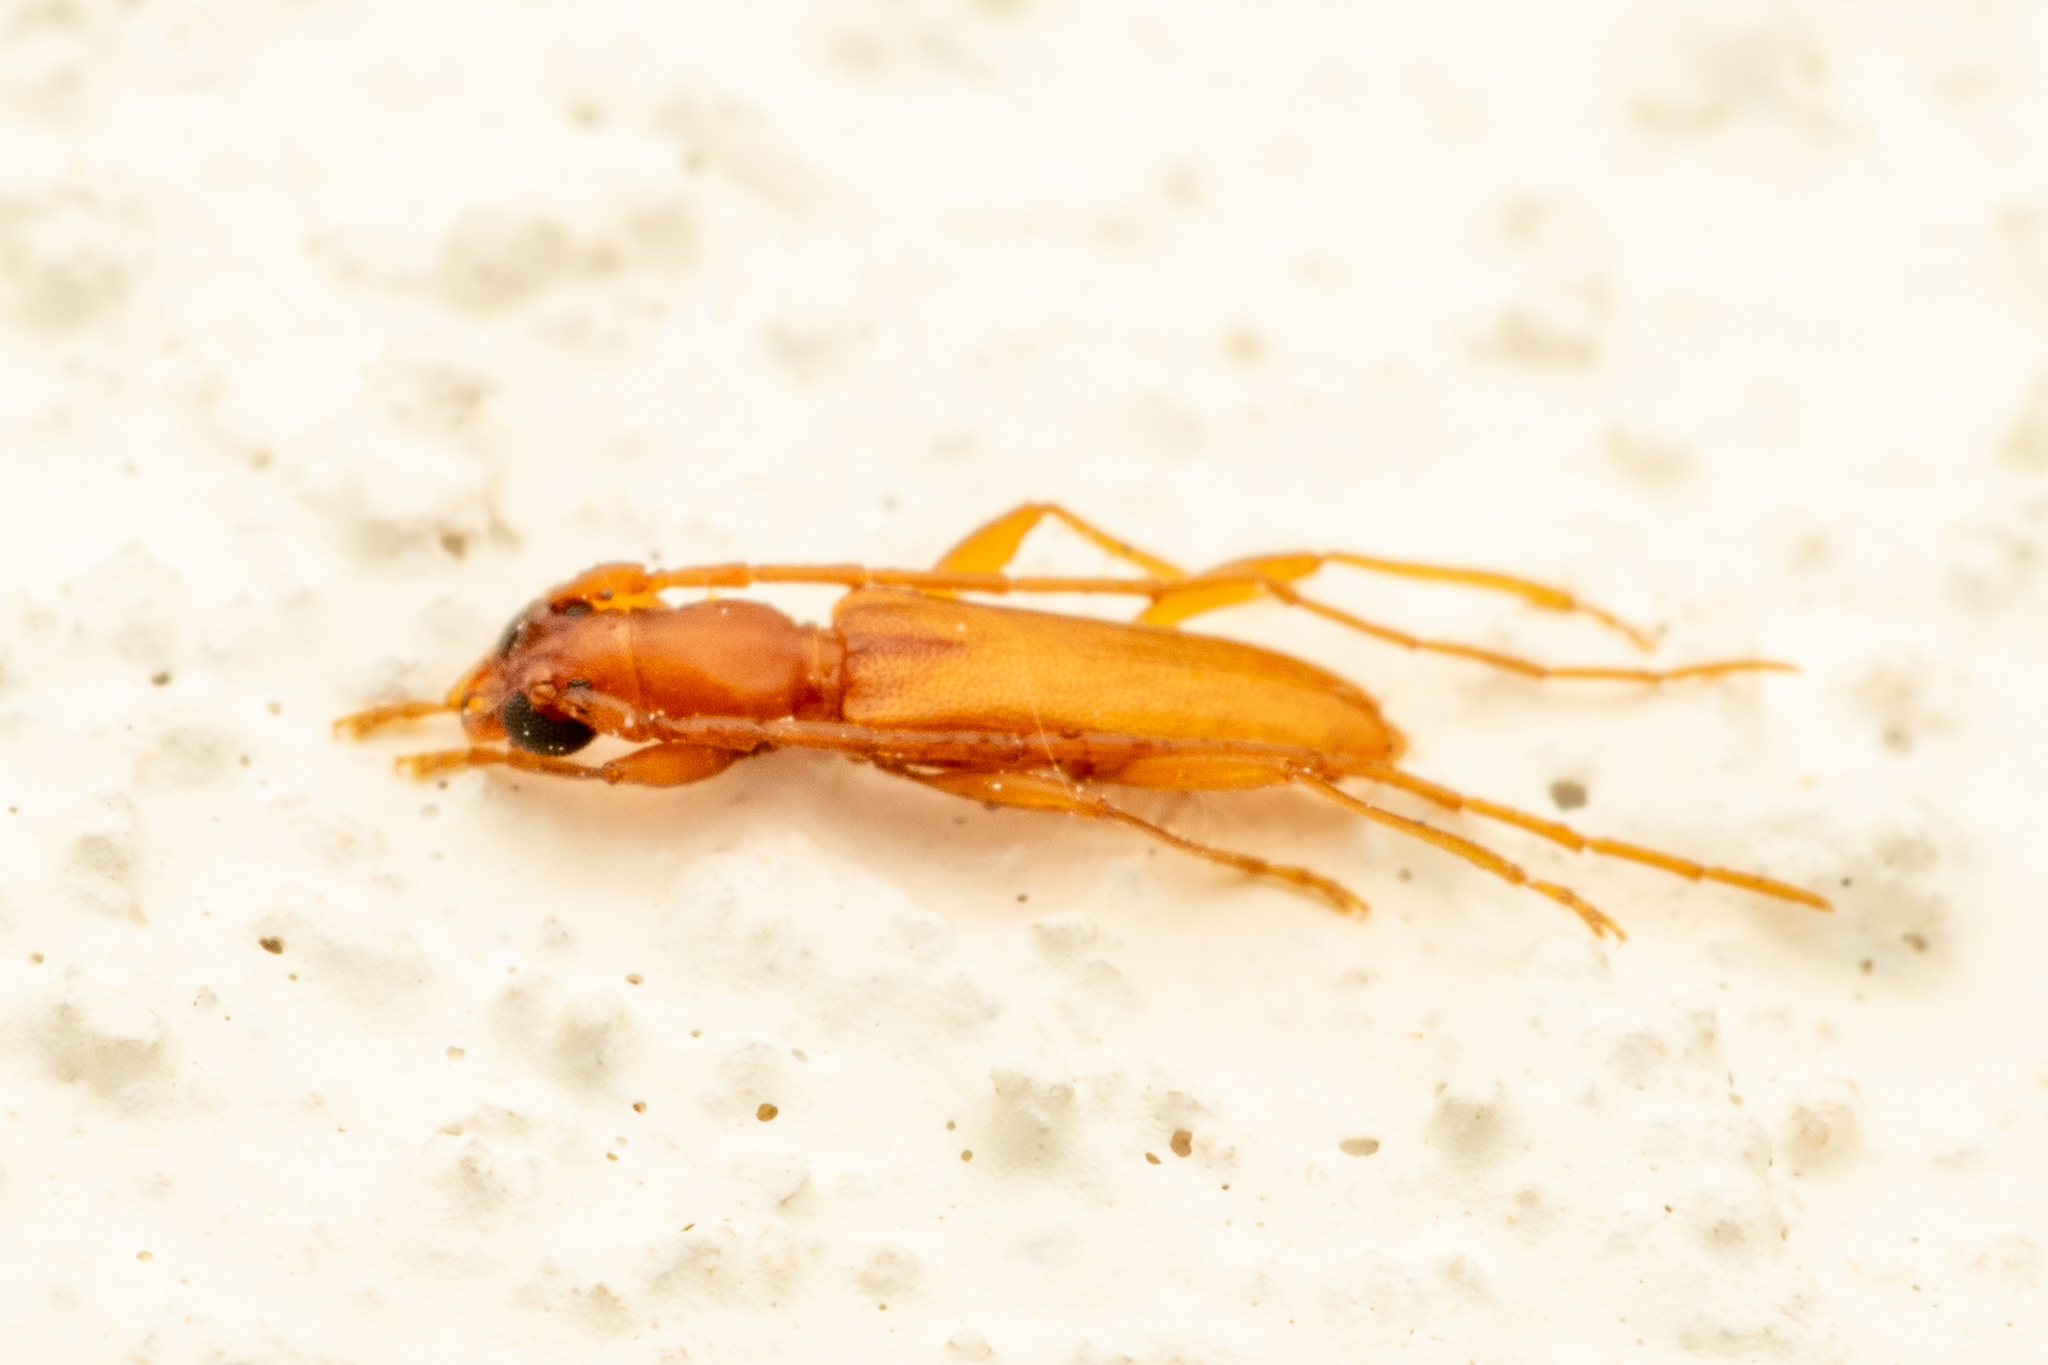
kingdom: Animalia
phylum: Arthropoda
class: Insecta
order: Coleoptera
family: Cerambycidae
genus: Caribbomerus
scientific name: Caribbomerus attenuatus
